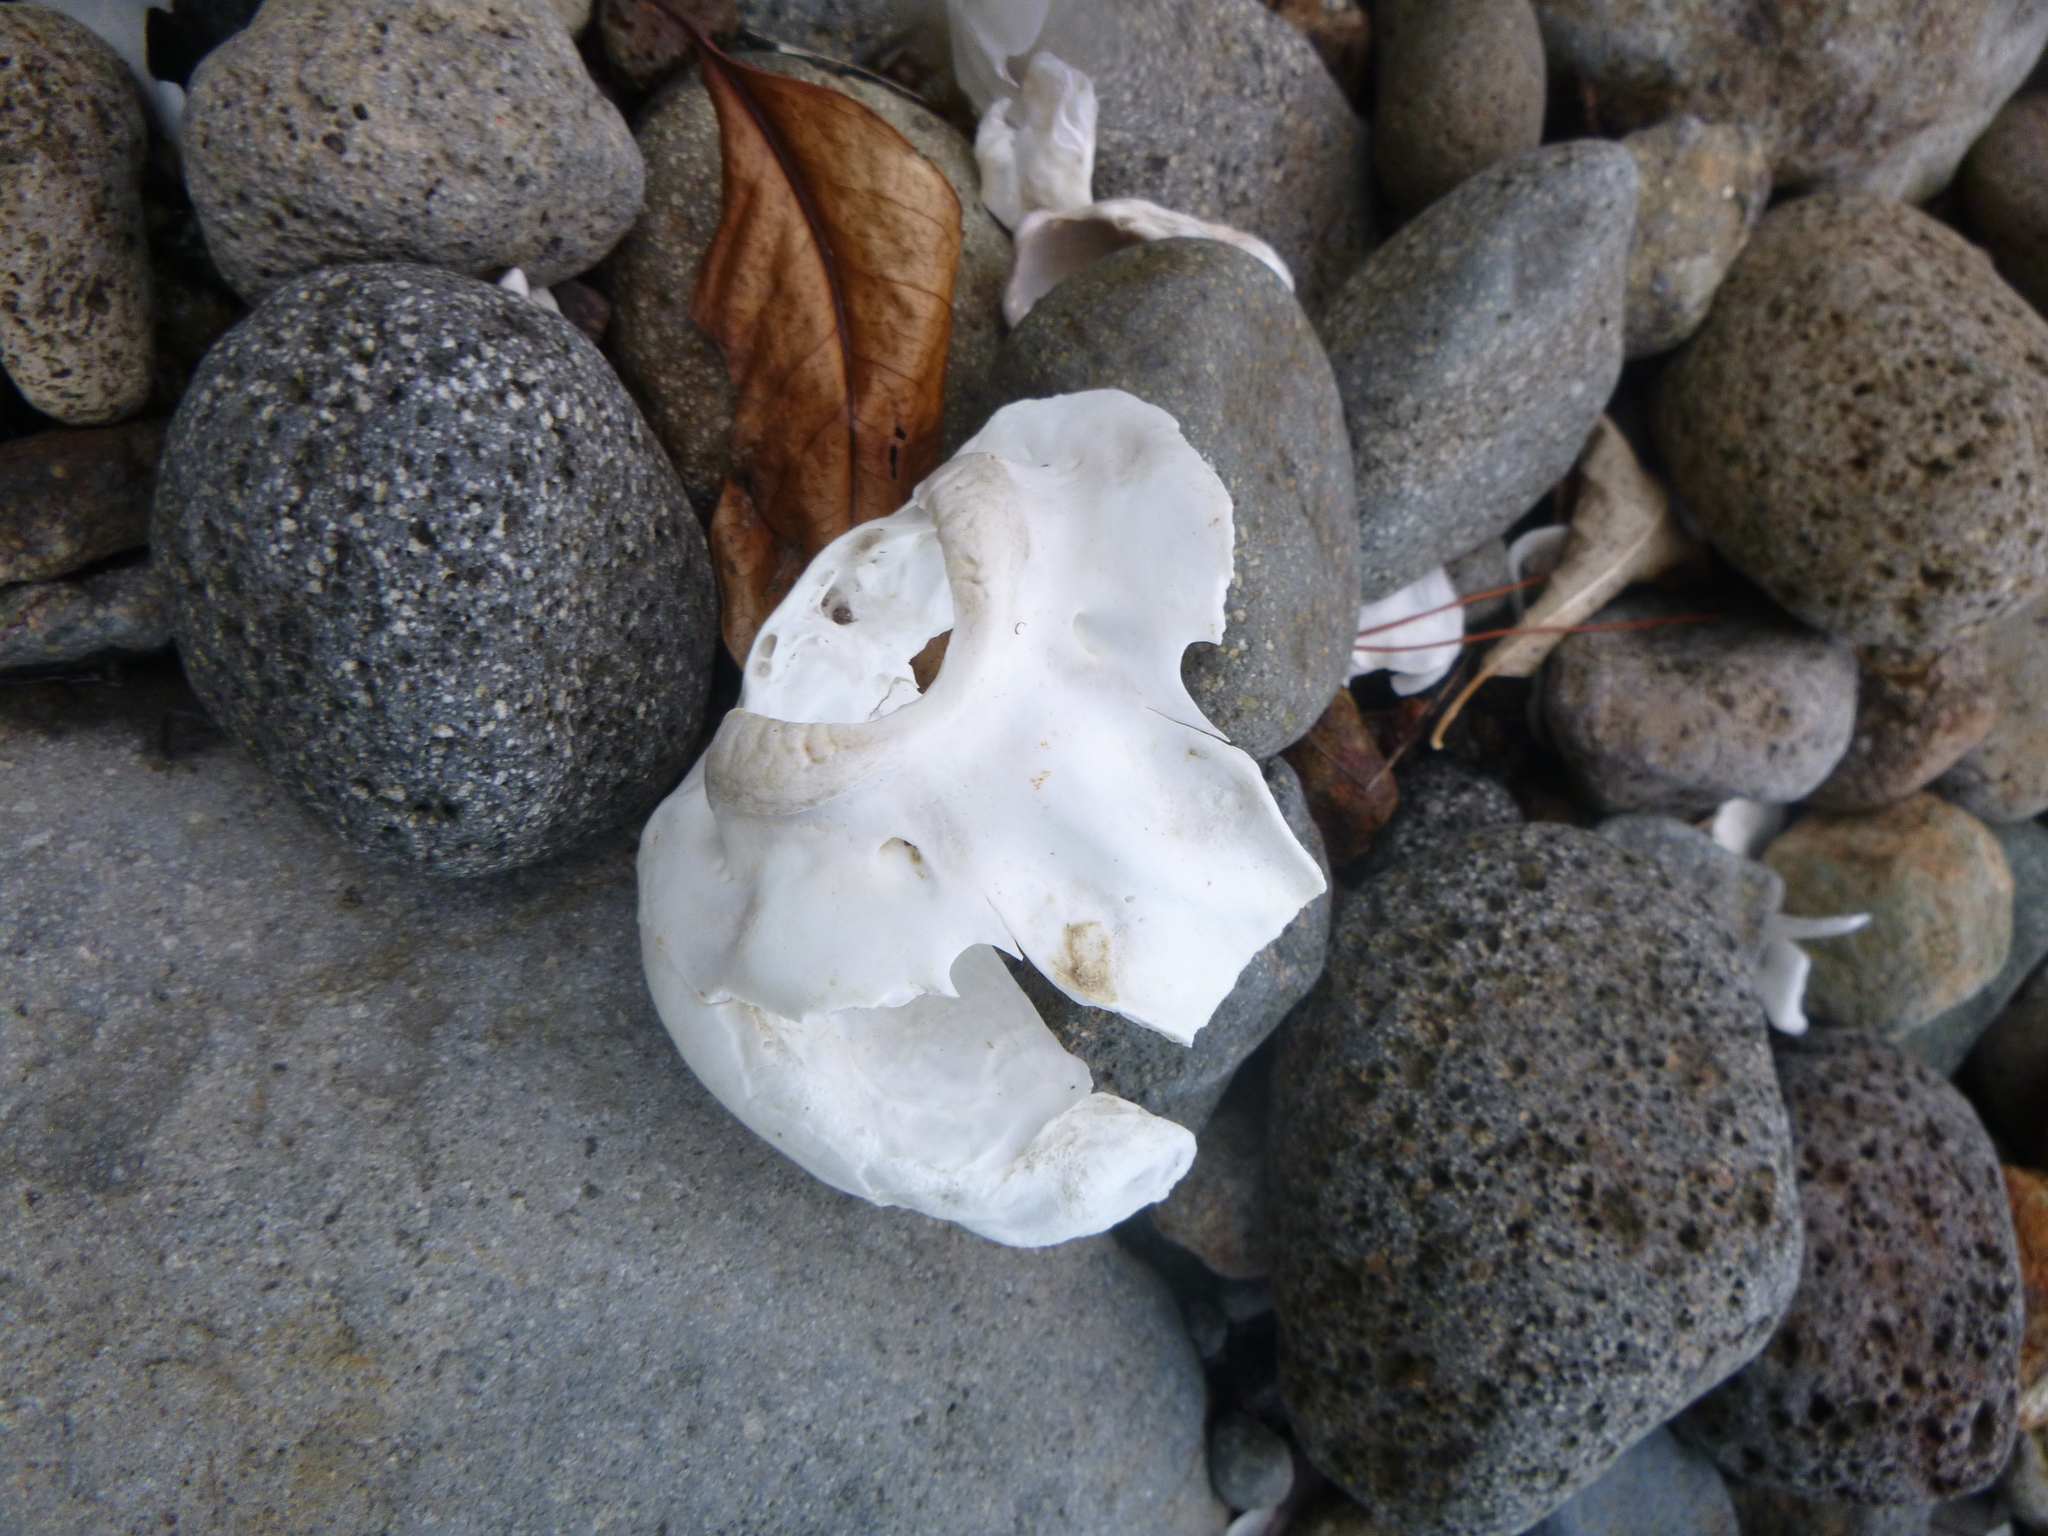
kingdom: Animalia
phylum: Chordata
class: Mammalia
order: Carnivora
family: Otariidae
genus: Arctocephalus
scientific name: Arctocephalus forsteri
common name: New zealand fur seal
